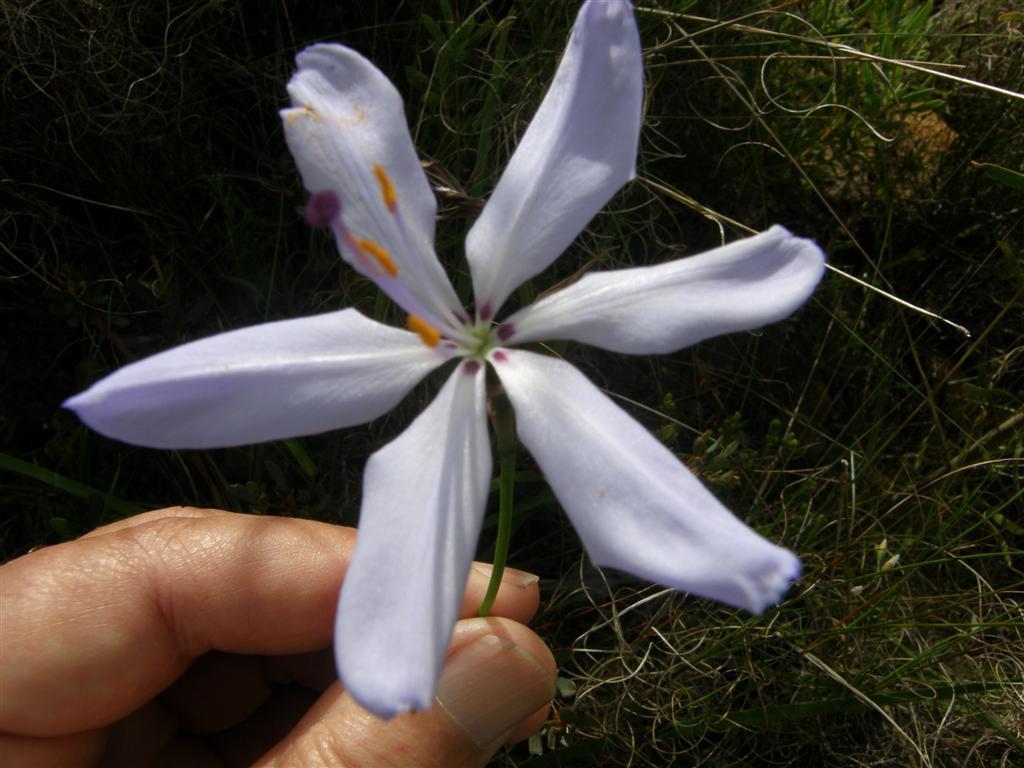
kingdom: Plantae
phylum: Tracheophyta
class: Liliopsida
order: Asparagales
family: Iridaceae
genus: Aristea
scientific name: Aristea spiralis
